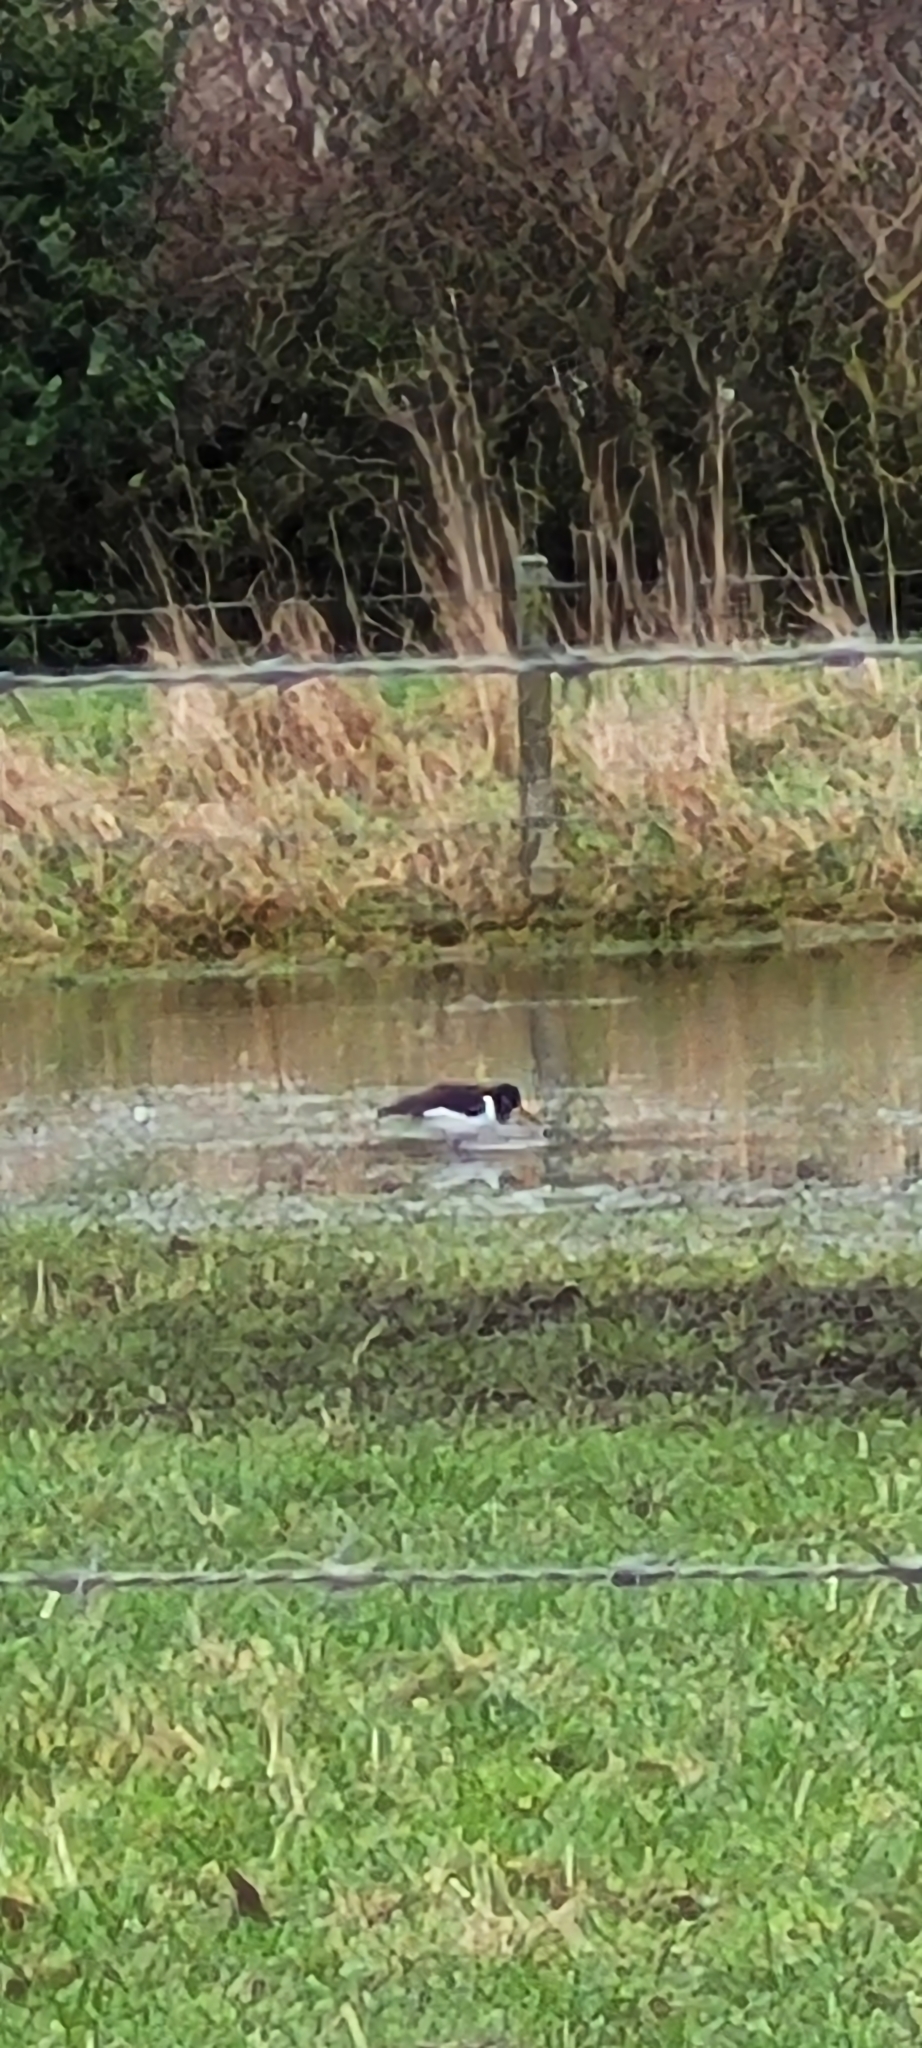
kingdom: Animalia
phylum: Chordata
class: Aves
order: Charadriiformes
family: Haematopodidae
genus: Haematopus
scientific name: Haematopus ostralegus
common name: Eurasian oystercatcher
